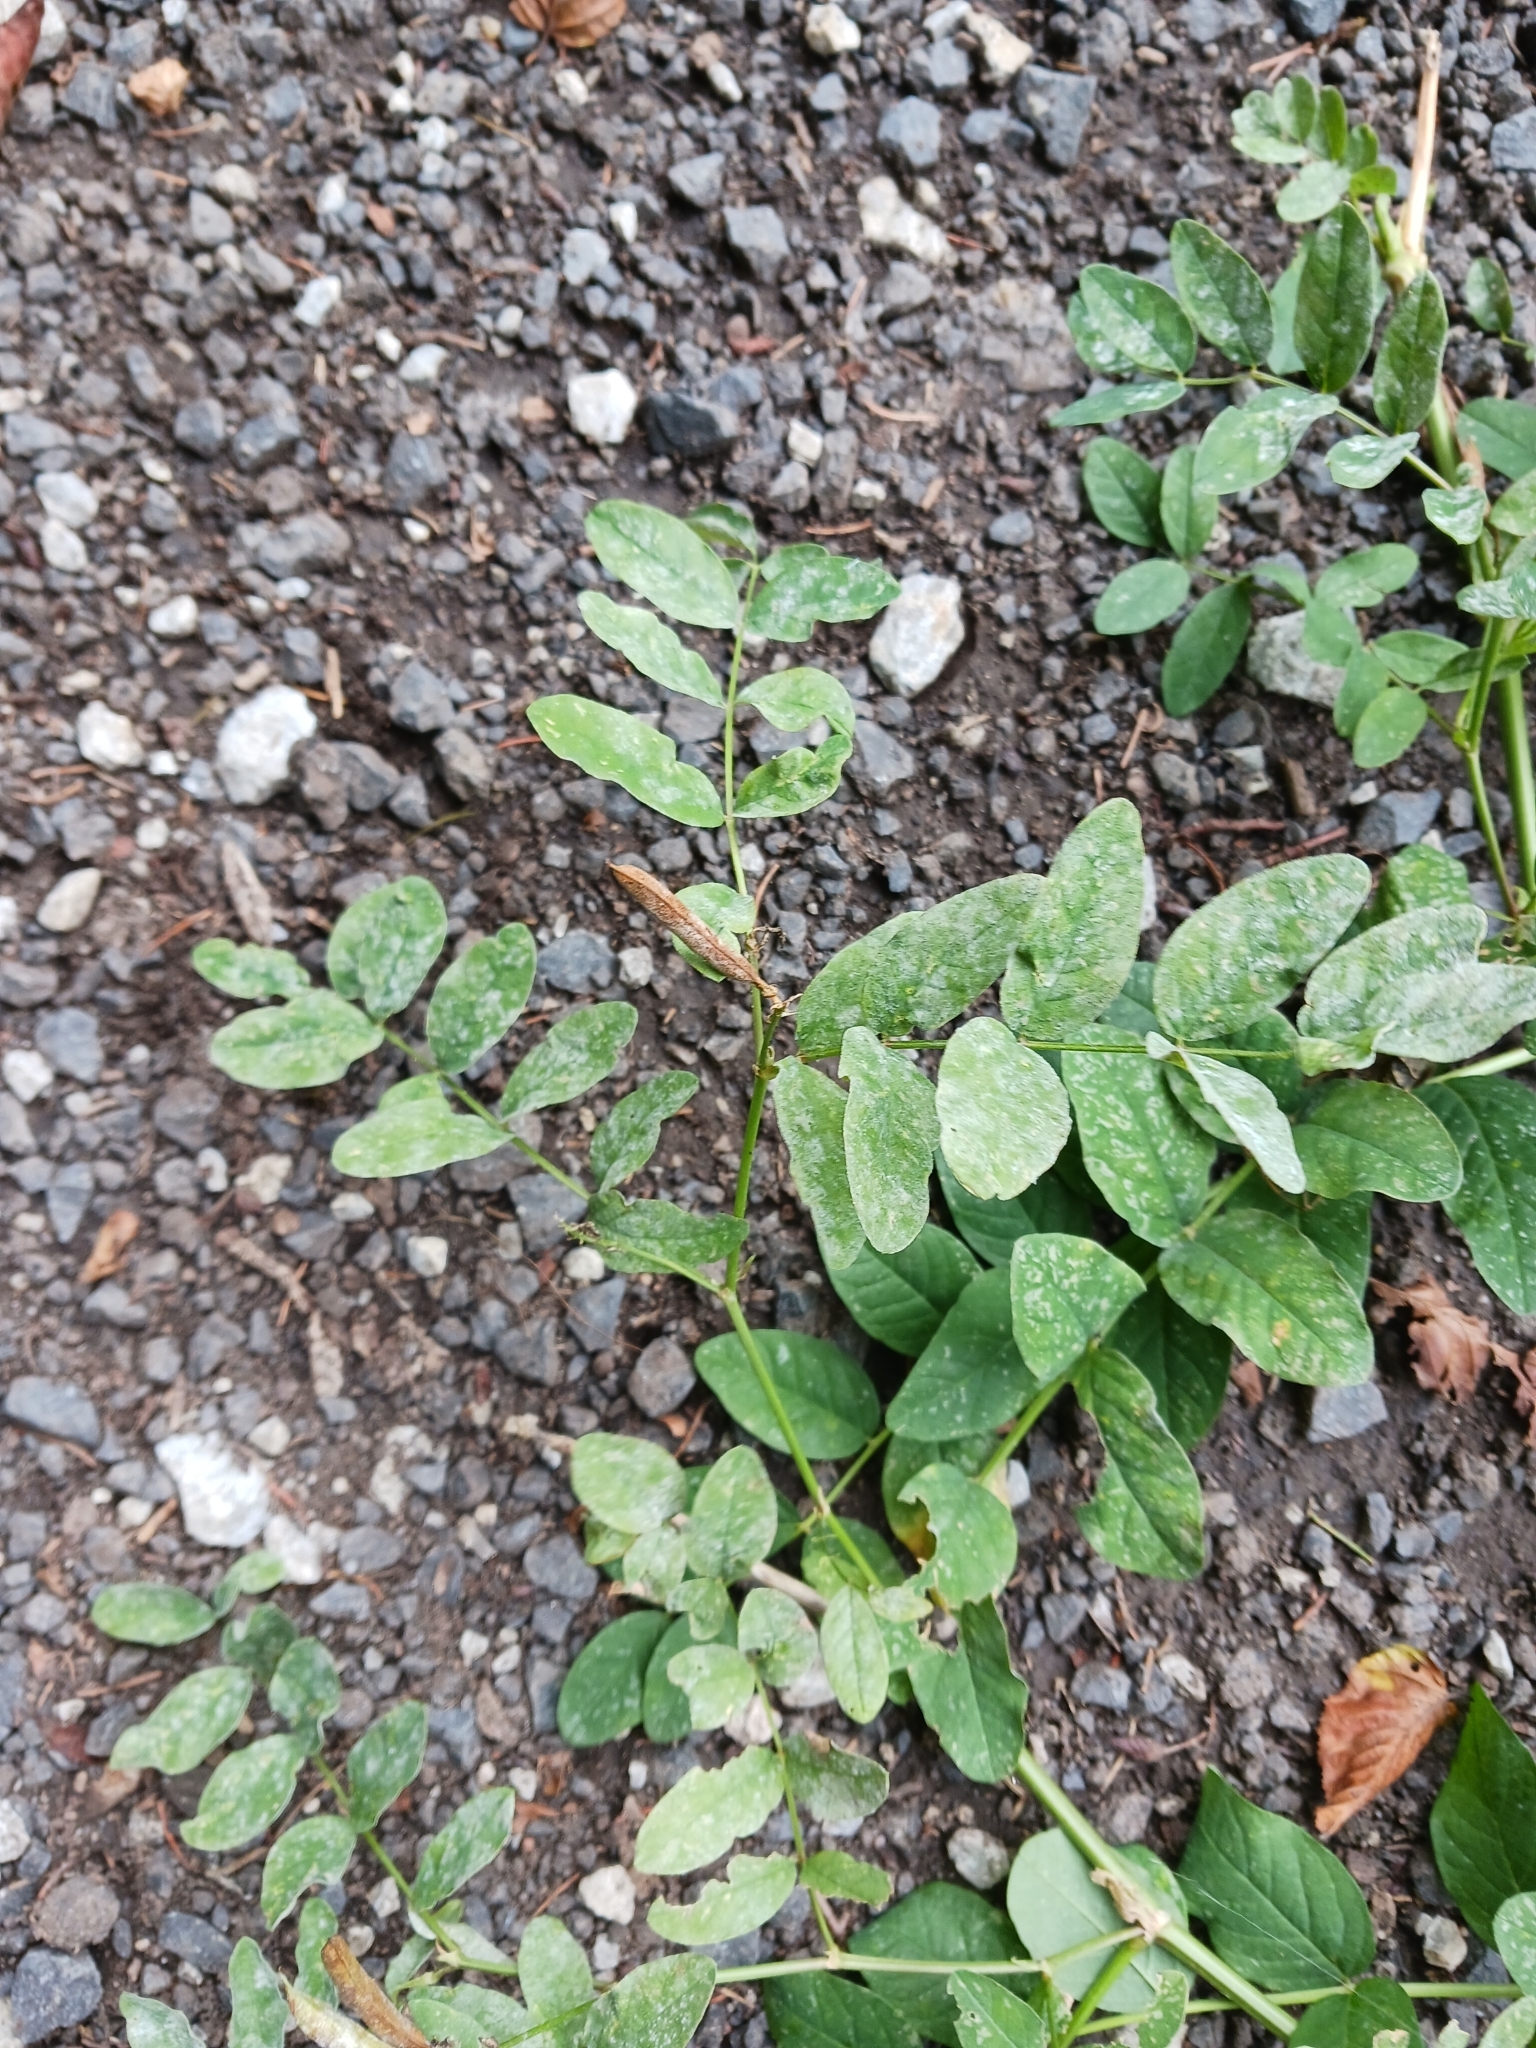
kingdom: Plantae
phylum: Tracheophyta
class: Magnoliopsida
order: Fabales
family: Fabaceae
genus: Astragalus
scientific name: Astragalus glycyphyllos
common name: Wild liquorice
